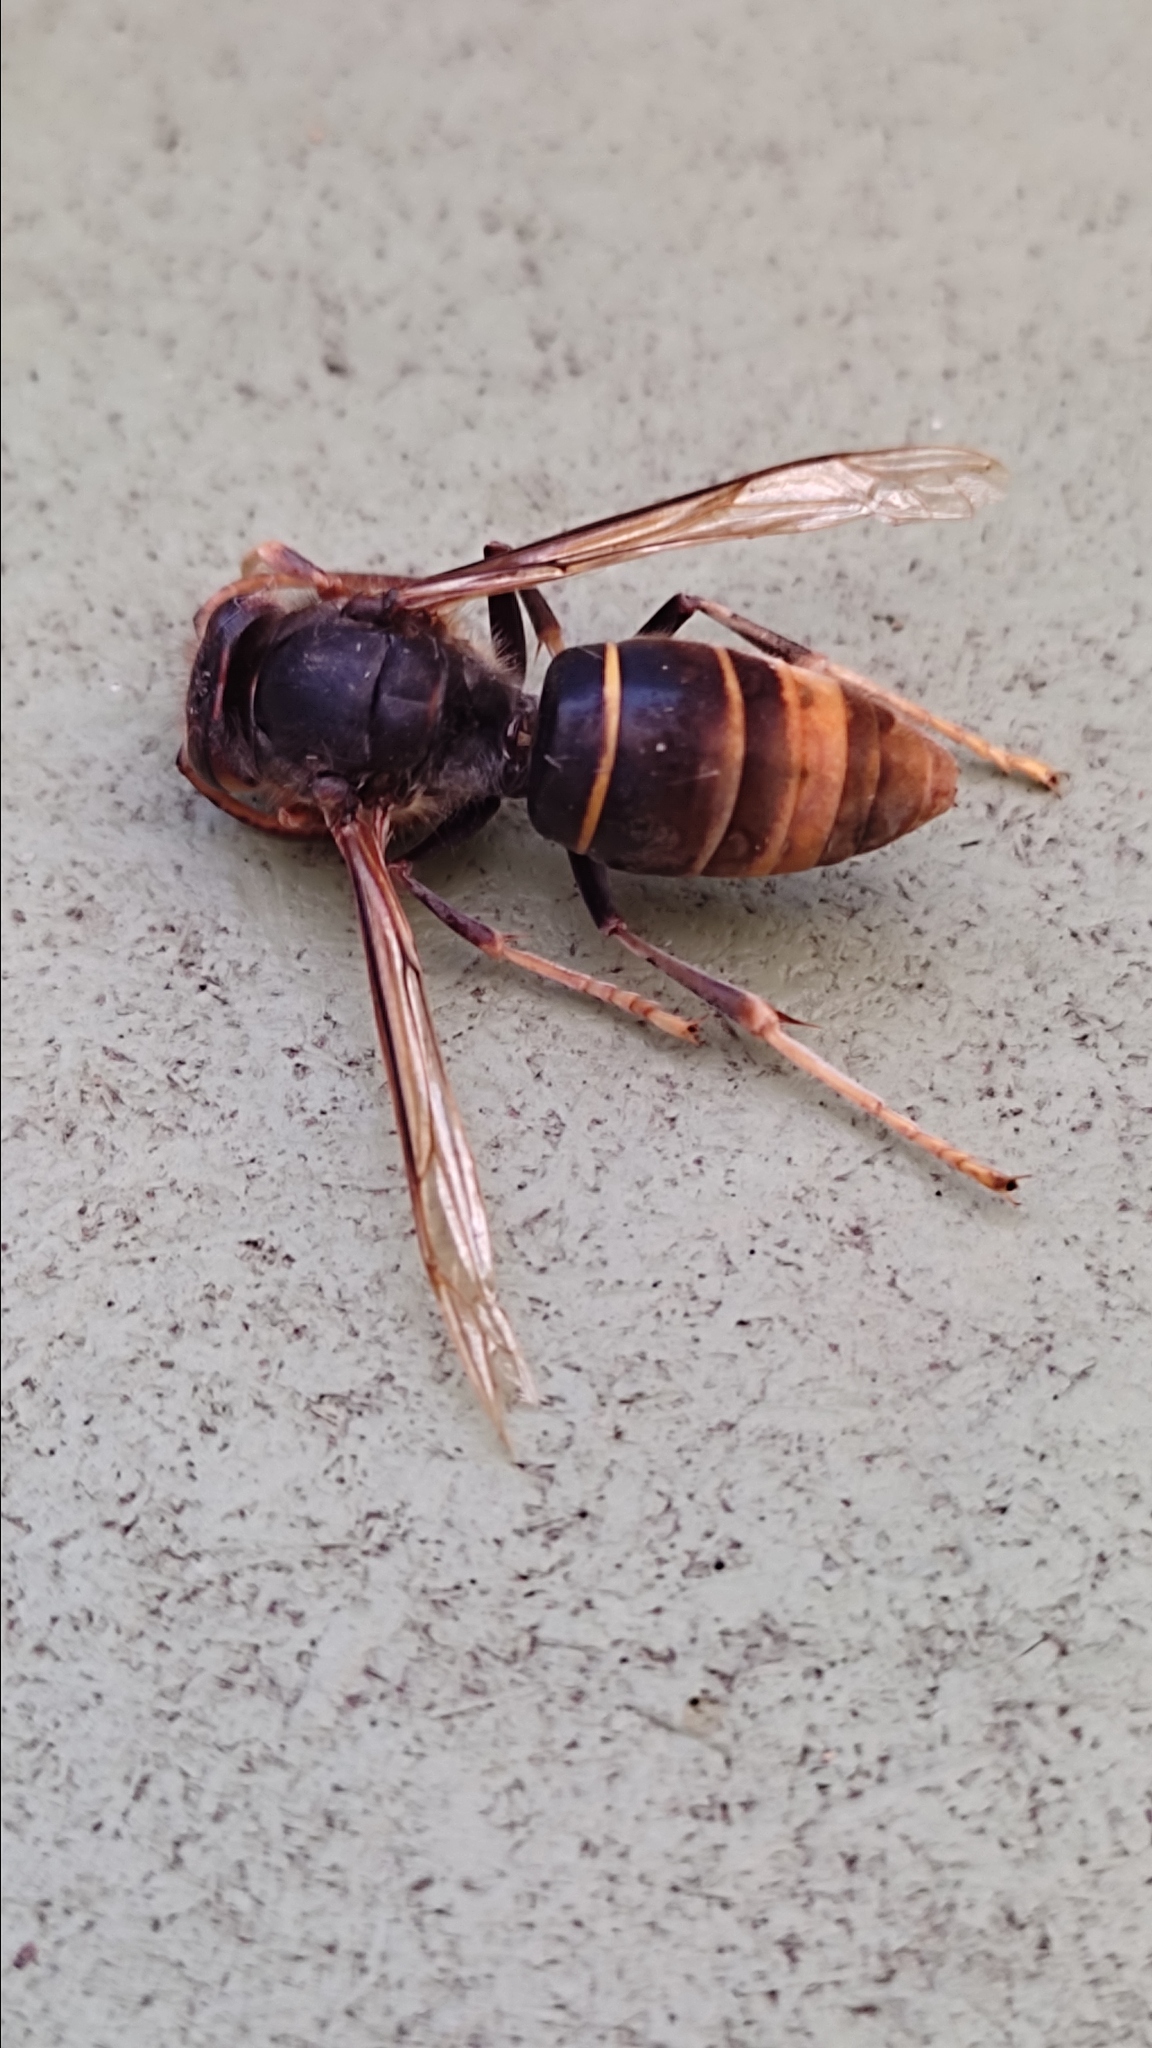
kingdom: Animalia
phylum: Arthropoda
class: Insecta
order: Hymenoptera
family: Vespidae
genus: Vespa
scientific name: Vespa velutina
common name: Asian hornet
